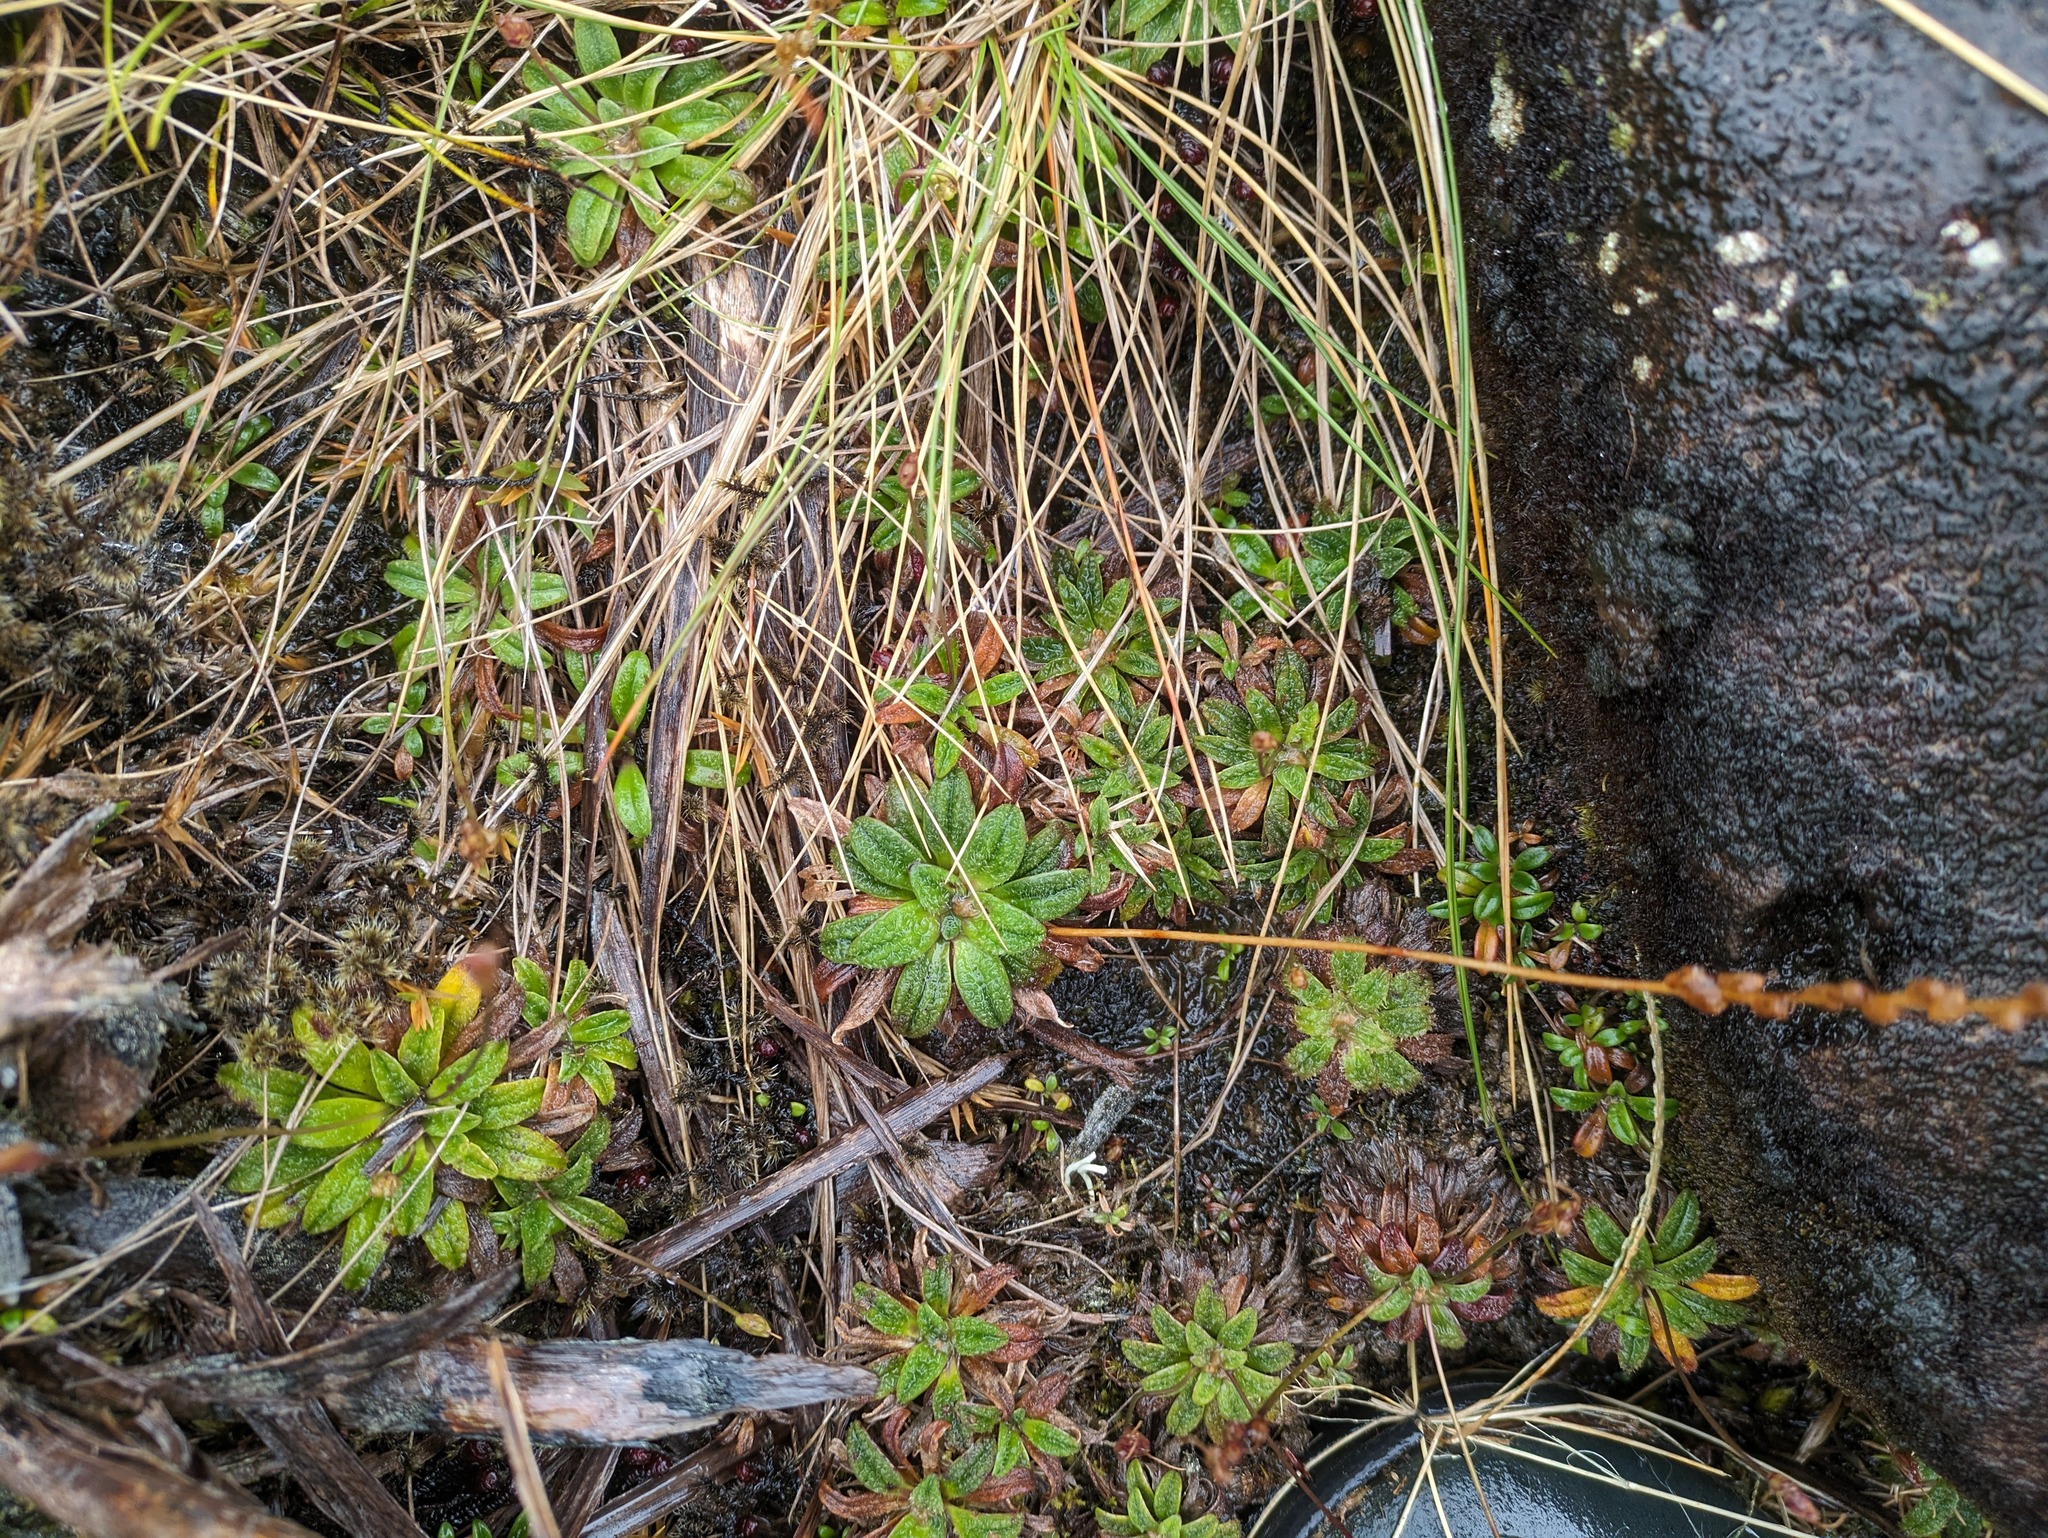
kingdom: Plantae
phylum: Tracheophyta
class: Magnoliopsida
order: Lamiales
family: Plantaginaceae
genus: Plantago
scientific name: Plantago pachyphylla
